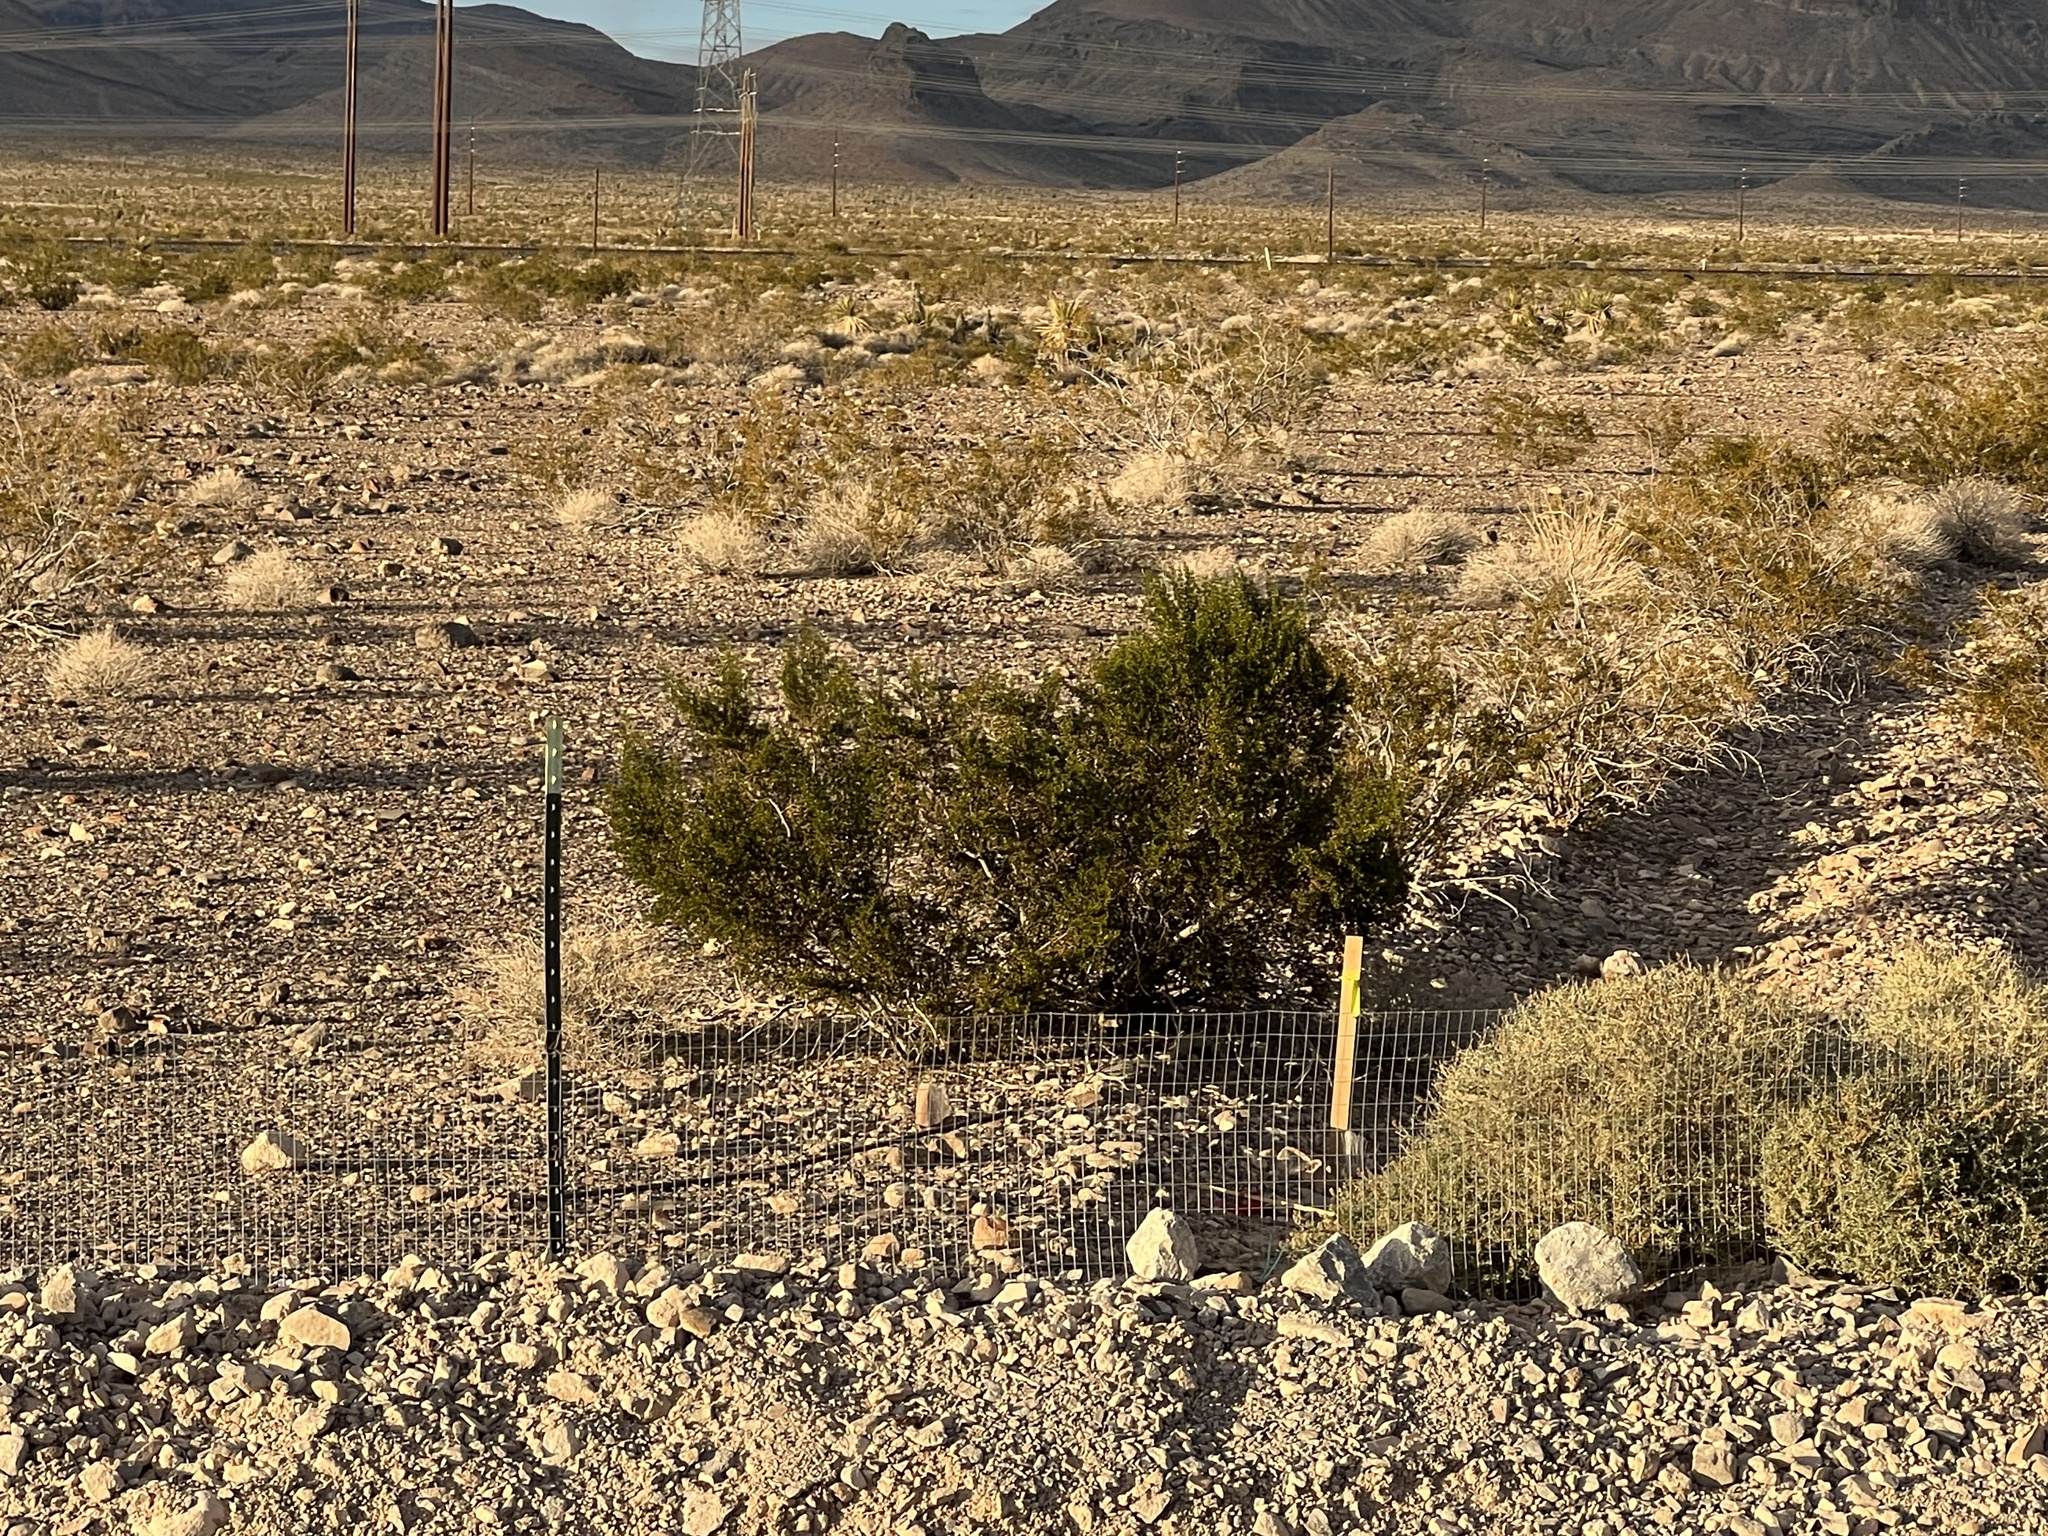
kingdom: Plantae
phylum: Tracheophyta
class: Magnoliopsida
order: Zygophyllales
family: Zygophyllaceae
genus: Larrea
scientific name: Larrea tridentata
